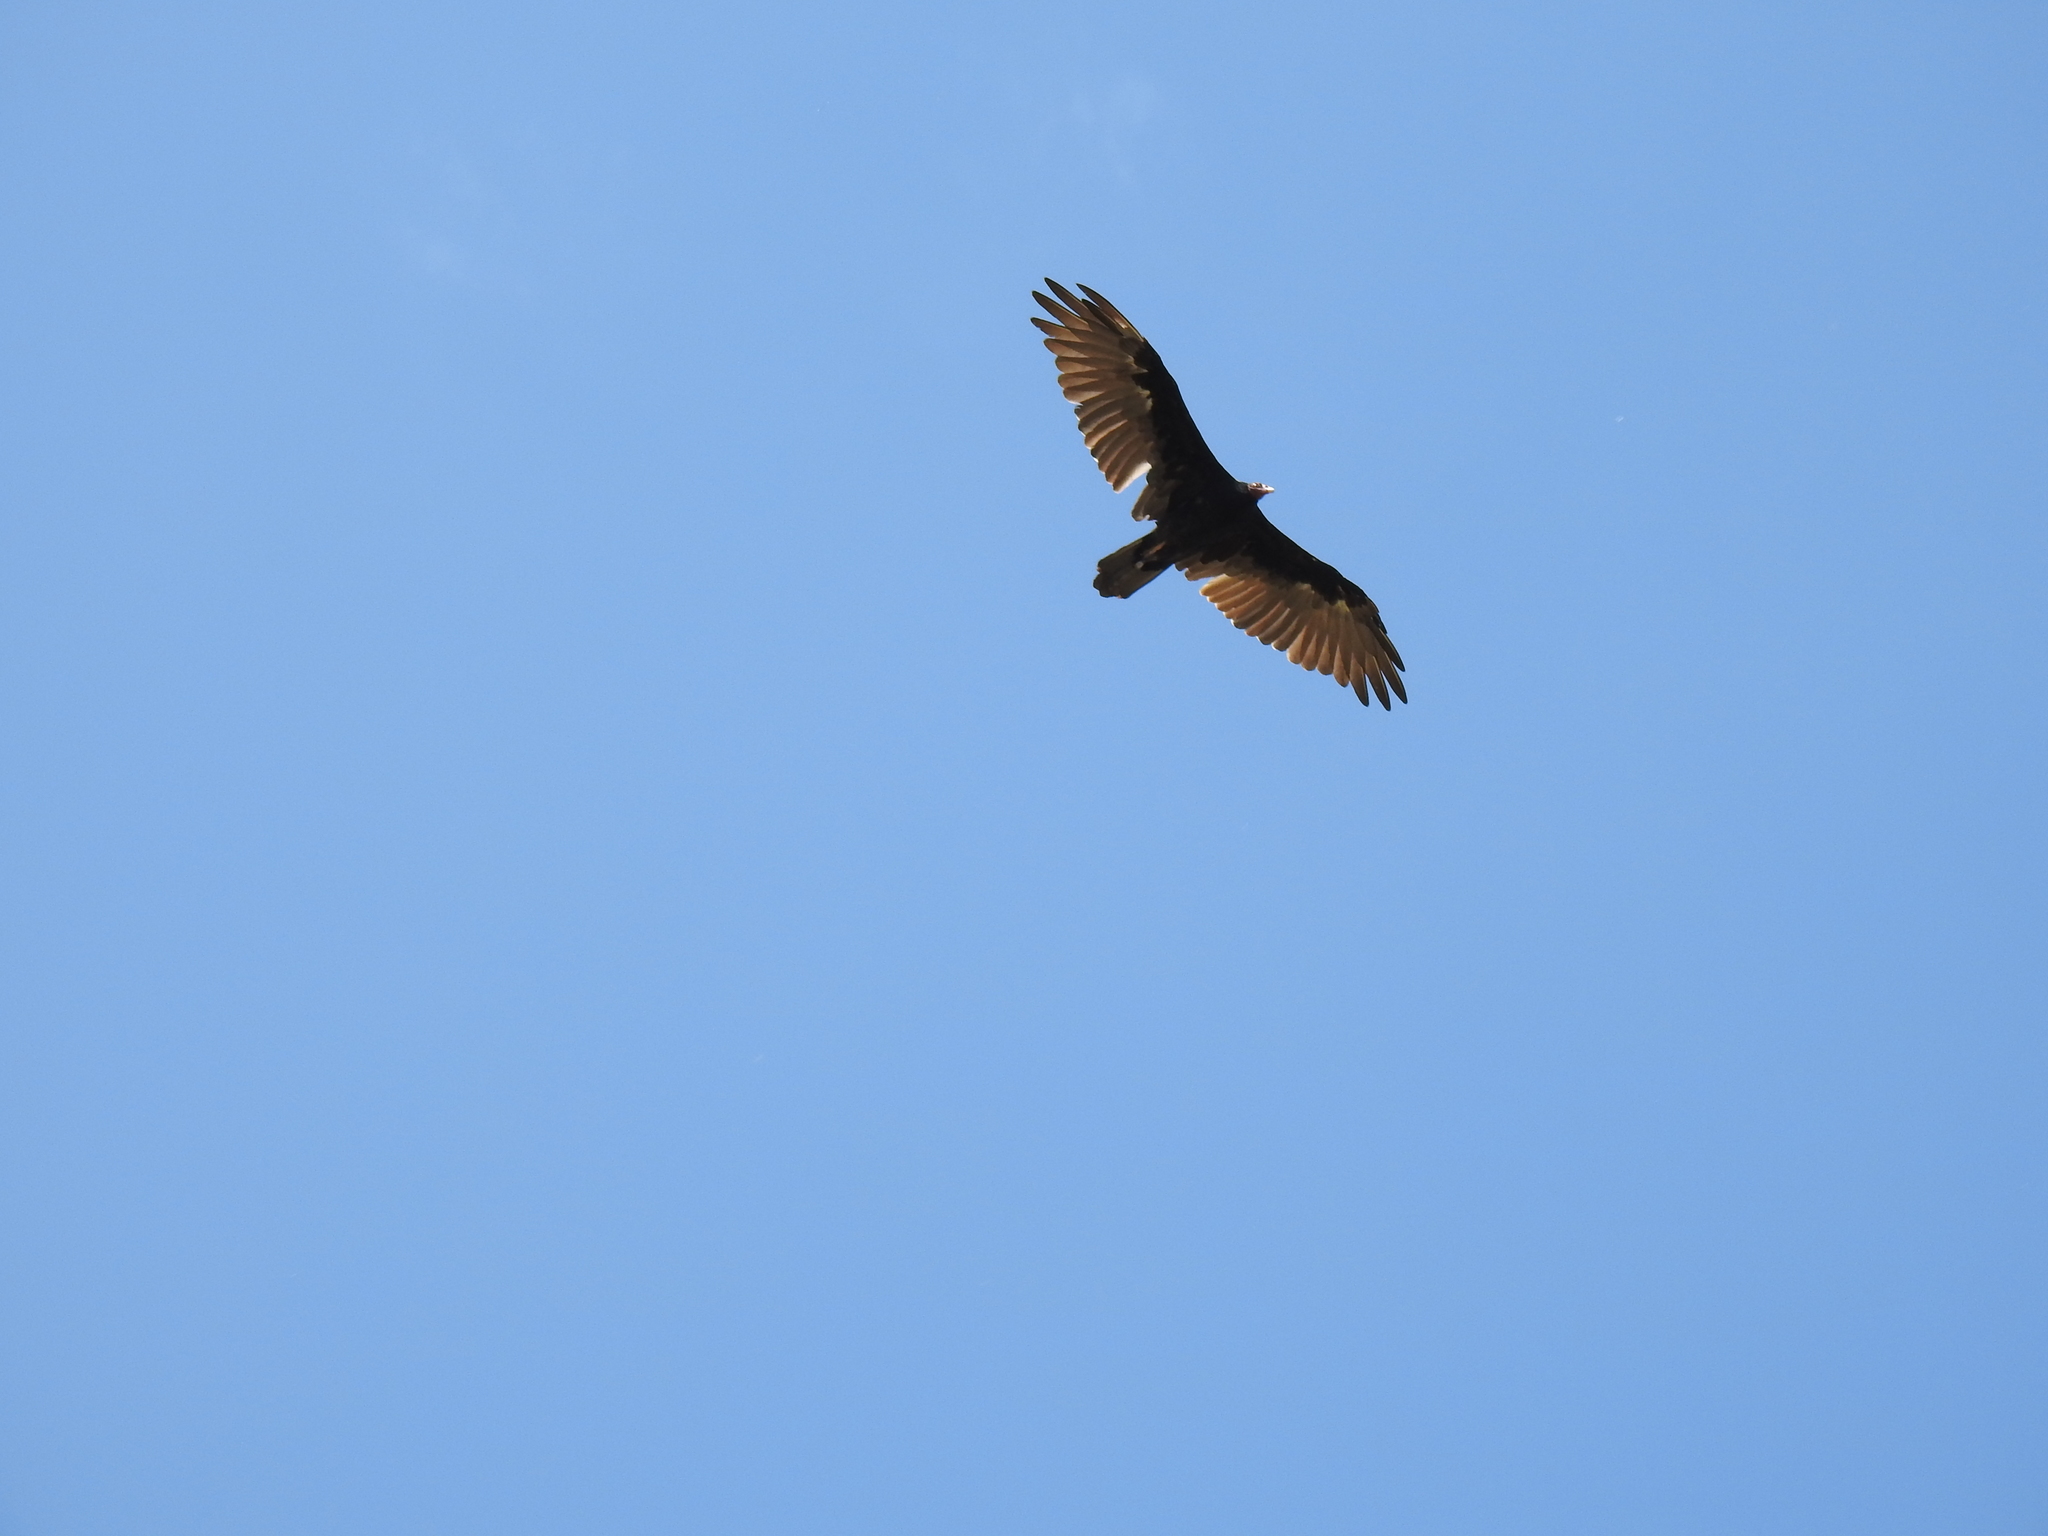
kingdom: Animalia
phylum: Chordata
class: Aves
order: Accipitriformes
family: Cathartidae
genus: Cathartes
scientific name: Cathartes aura
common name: Turkey vulture
